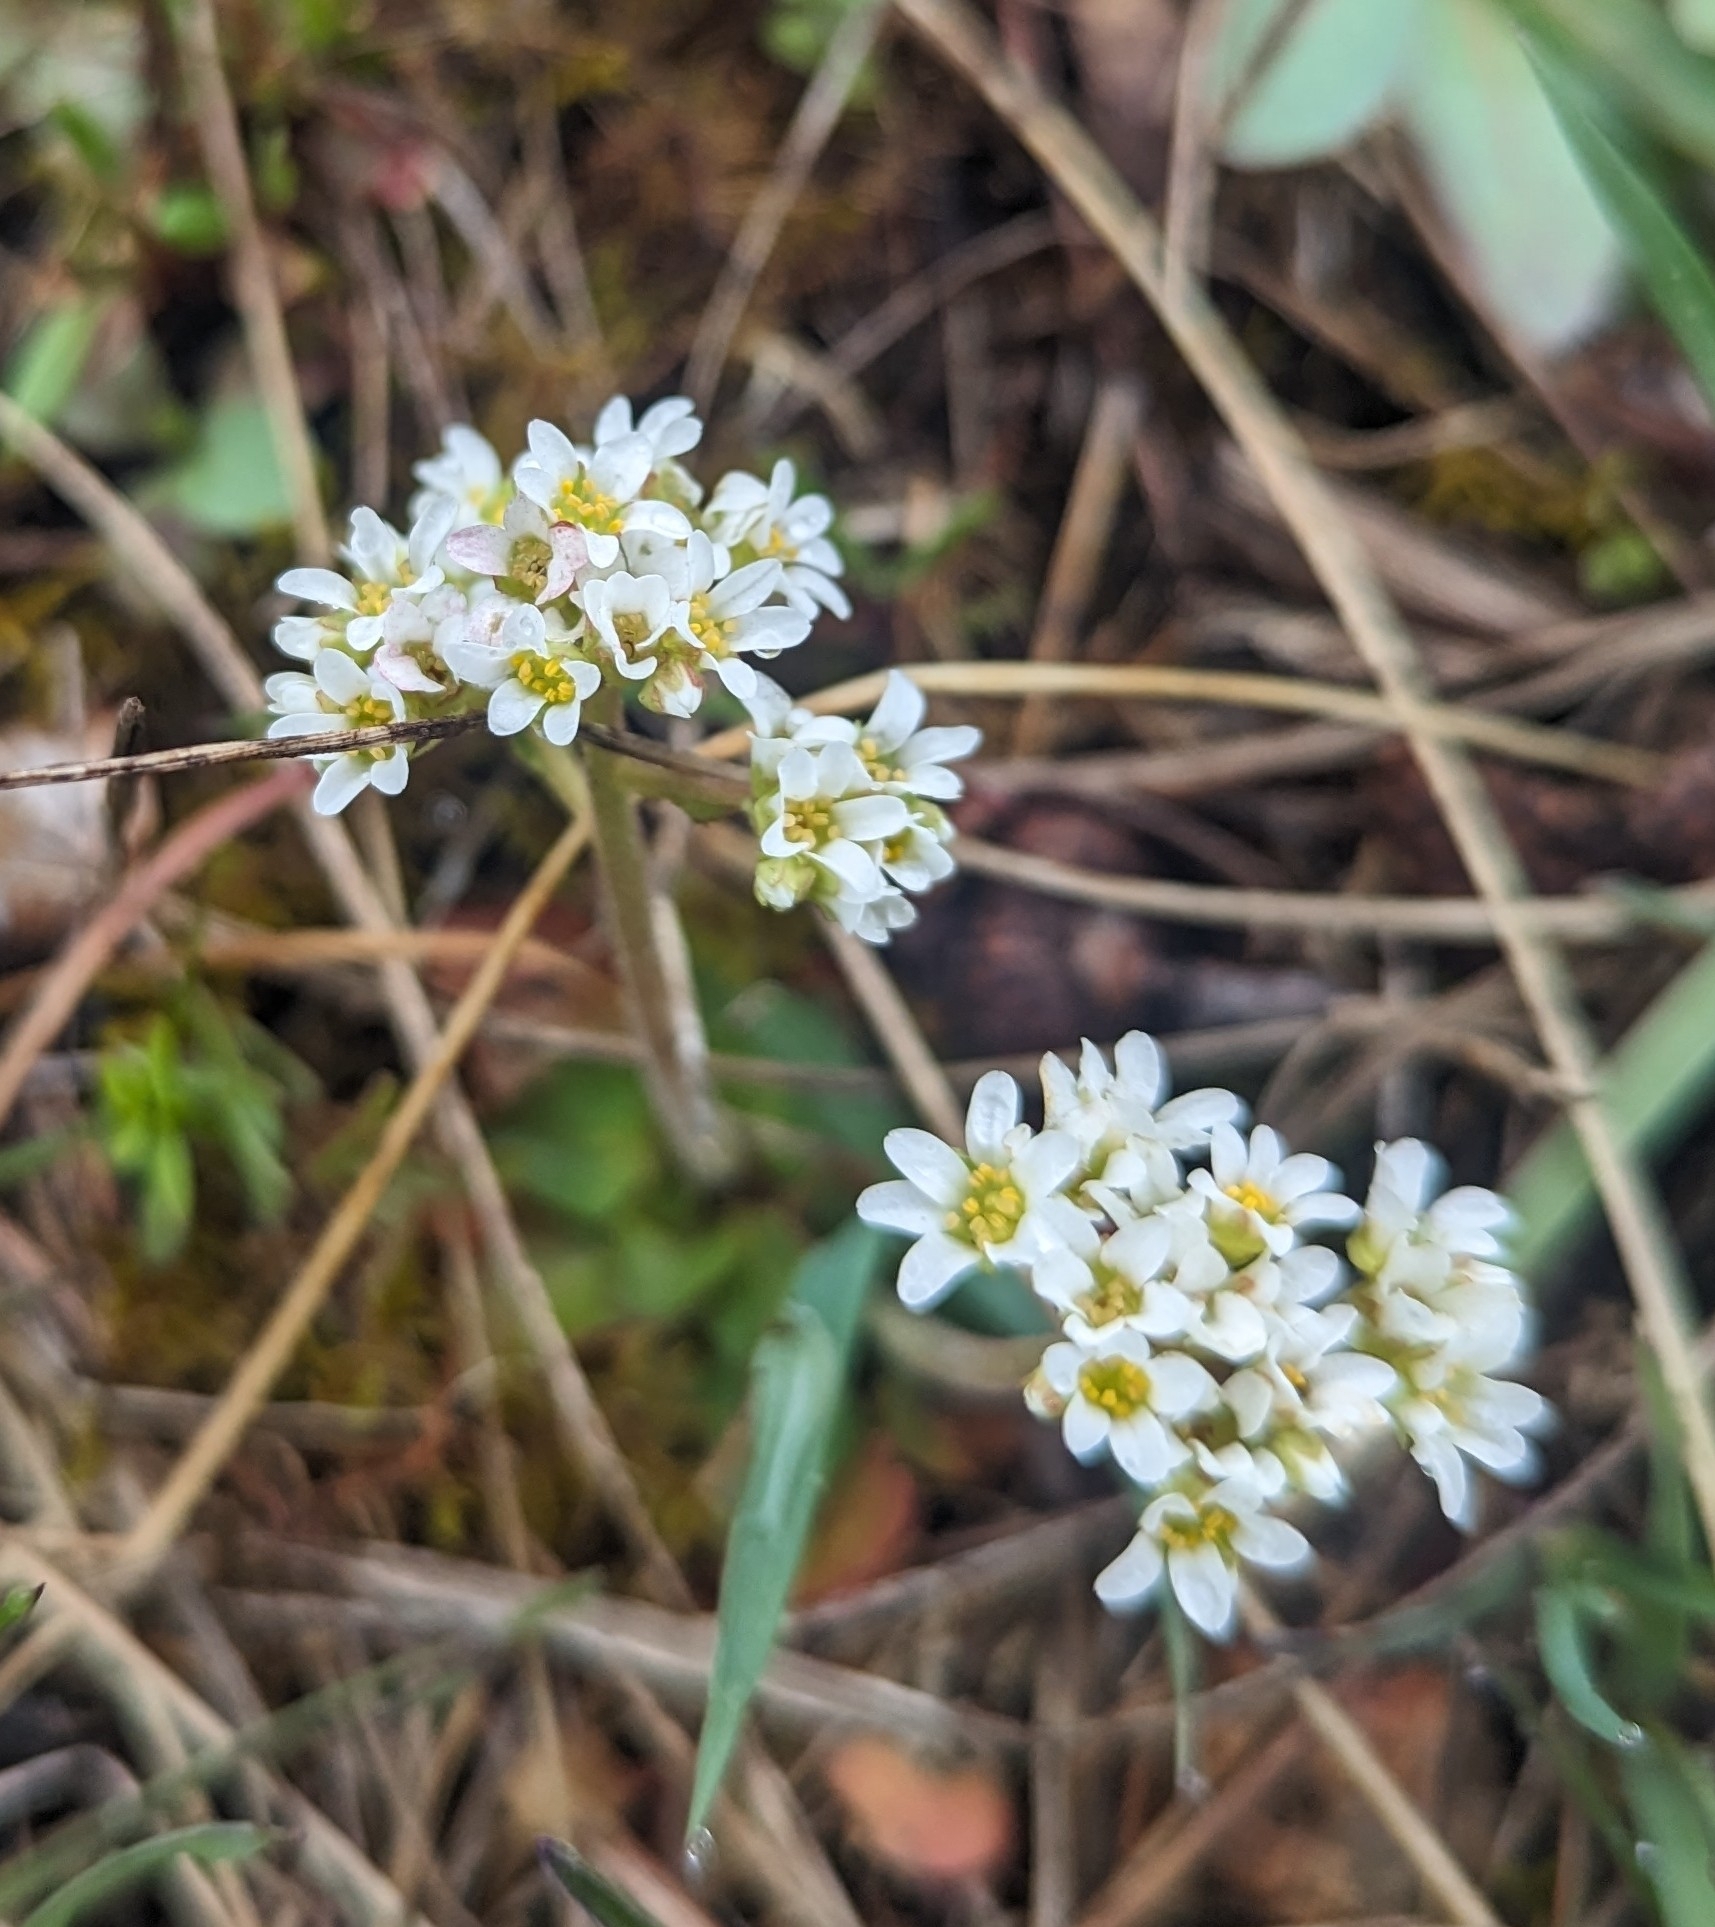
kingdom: Plantae
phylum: Tracheophyta
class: Magnoliopsida
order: Saxifragales
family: Saxifragaceae
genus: Micranthes
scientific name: Micranthes virginiensis
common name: Early saxifrage
